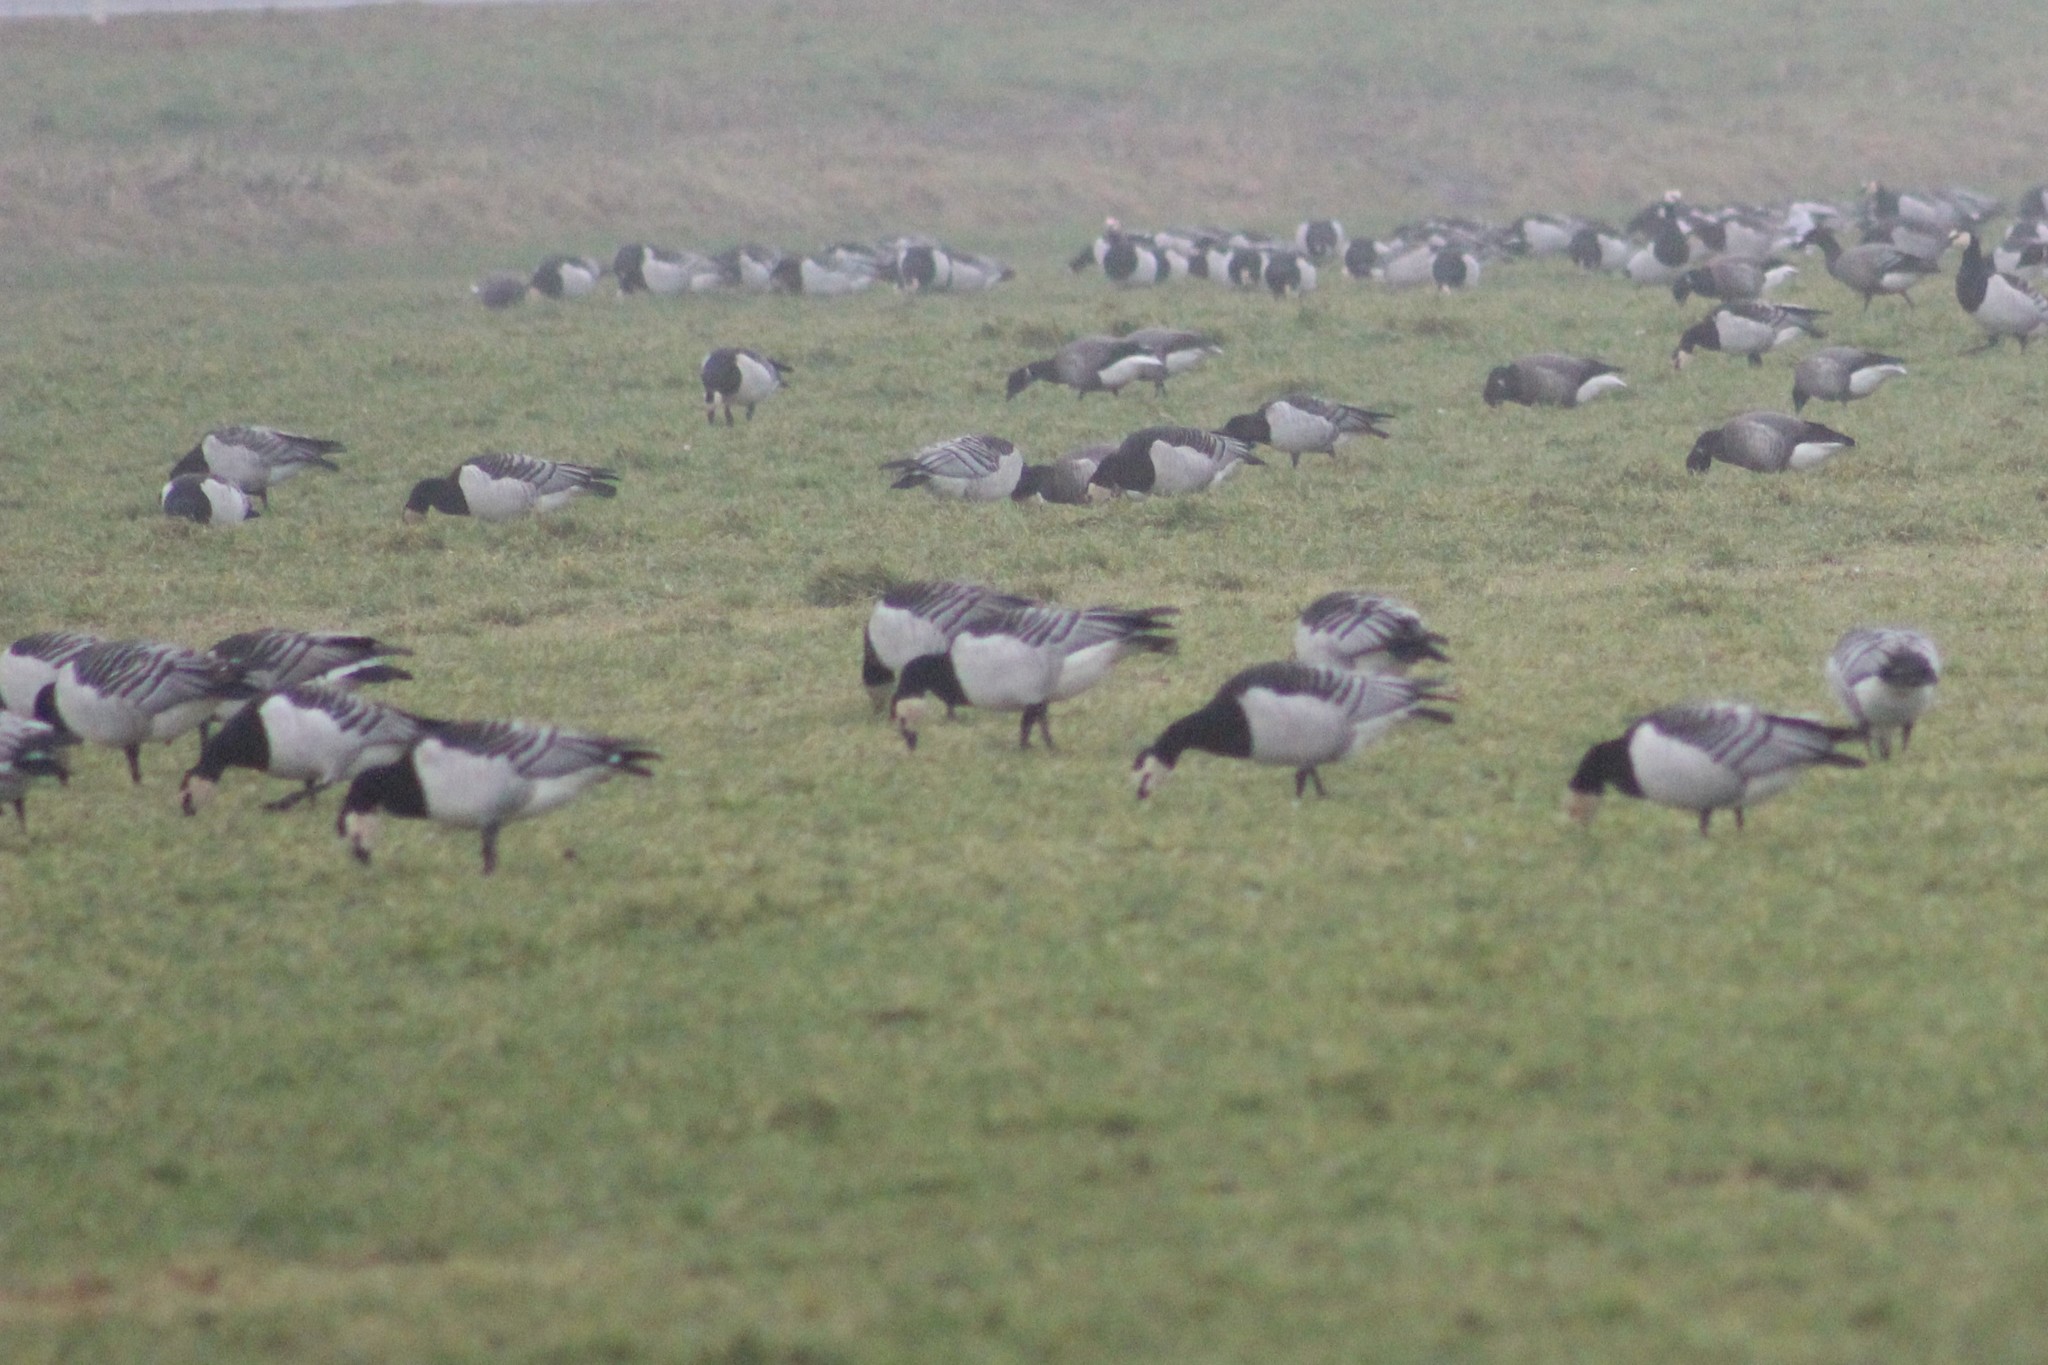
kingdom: Animalia
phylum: Chordata
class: Aves
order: Anseriformes
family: Anatidae
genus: Branta
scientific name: Branta leucopsis
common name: Barnacle goose
